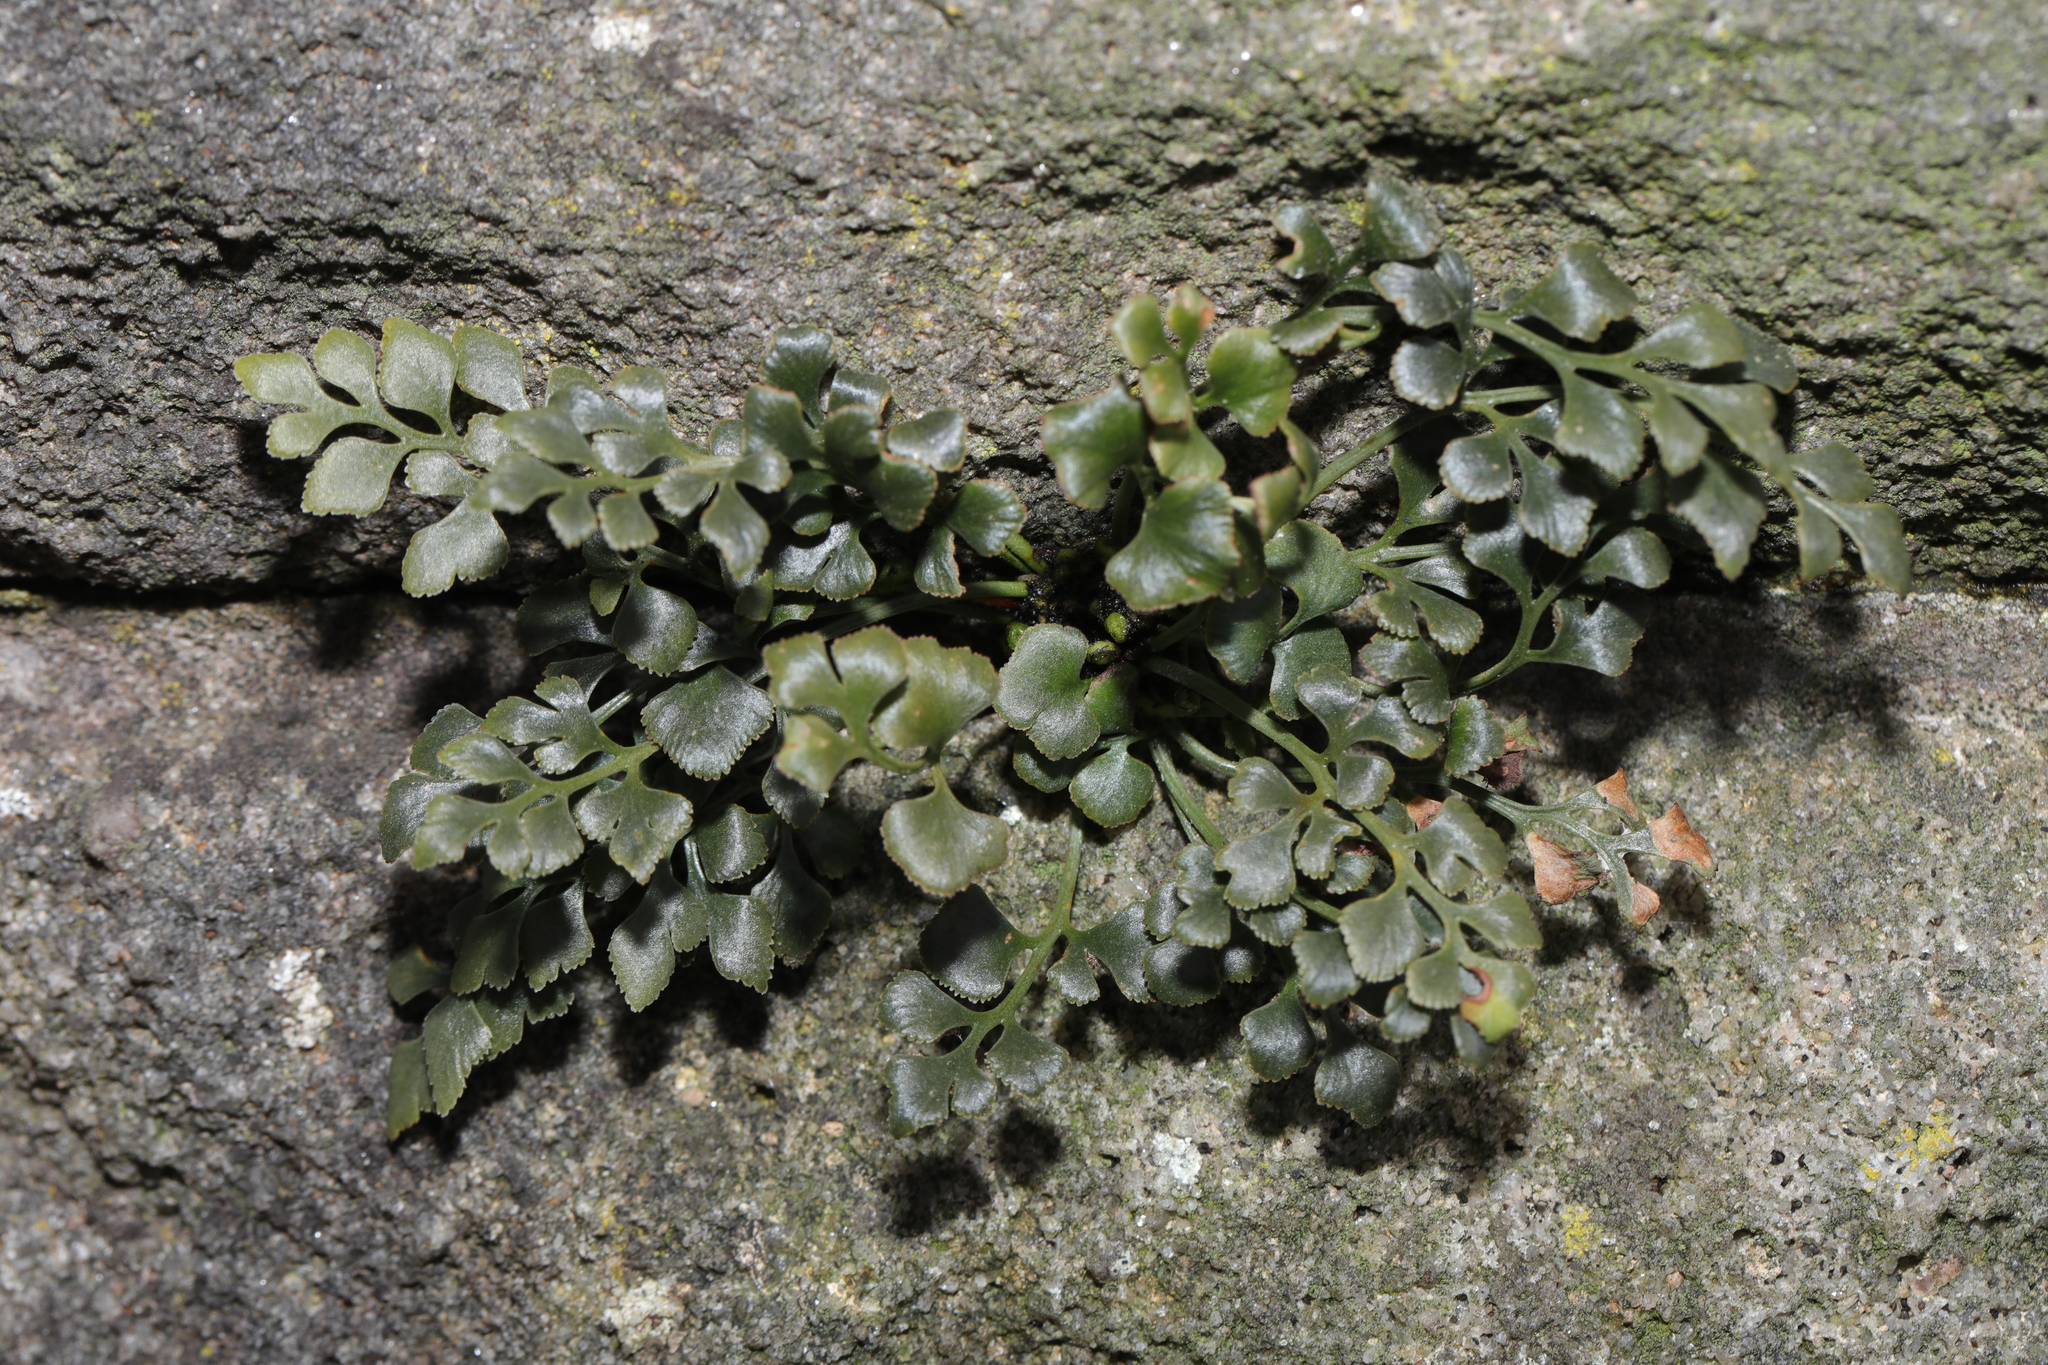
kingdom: Plantae
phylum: Tracheophyta
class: Polypodiopsida
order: Polypodiales
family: Aspleniaceae
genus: Asplenium
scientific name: Asplenium ruta-muraria
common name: Wall-rue
